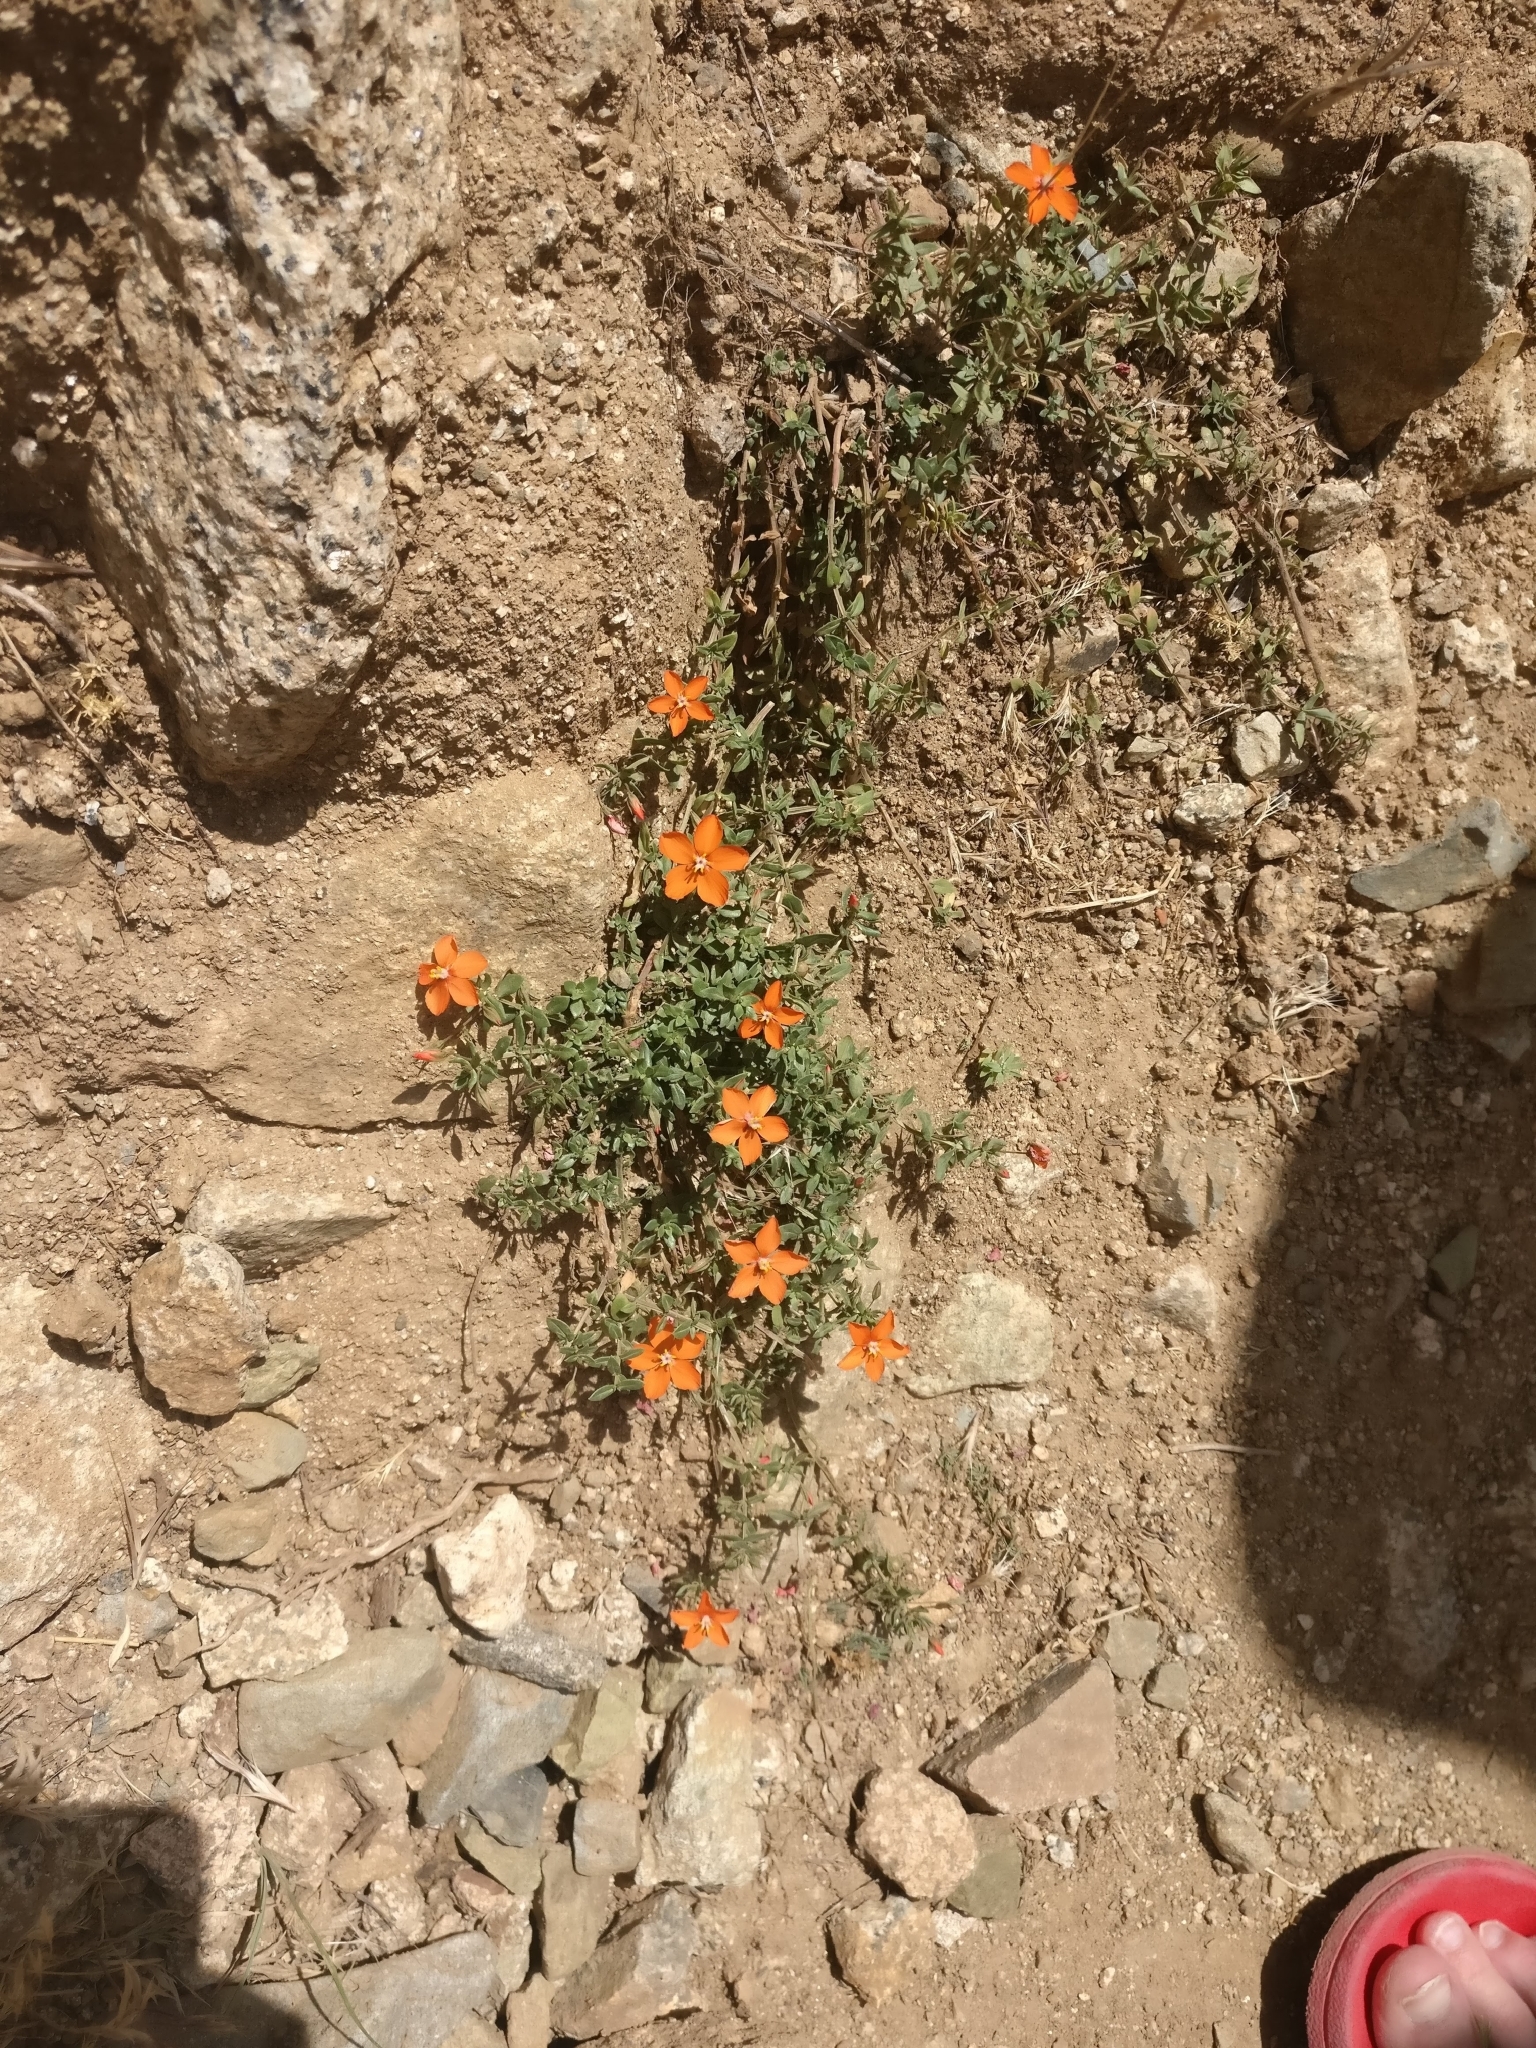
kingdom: Plantae
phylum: Tracheophyta
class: Magnoliopsida
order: Ericales
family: Primulaceae
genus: Lysimachia
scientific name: Lysimachia arvensis
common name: Scarlet pimpernel
